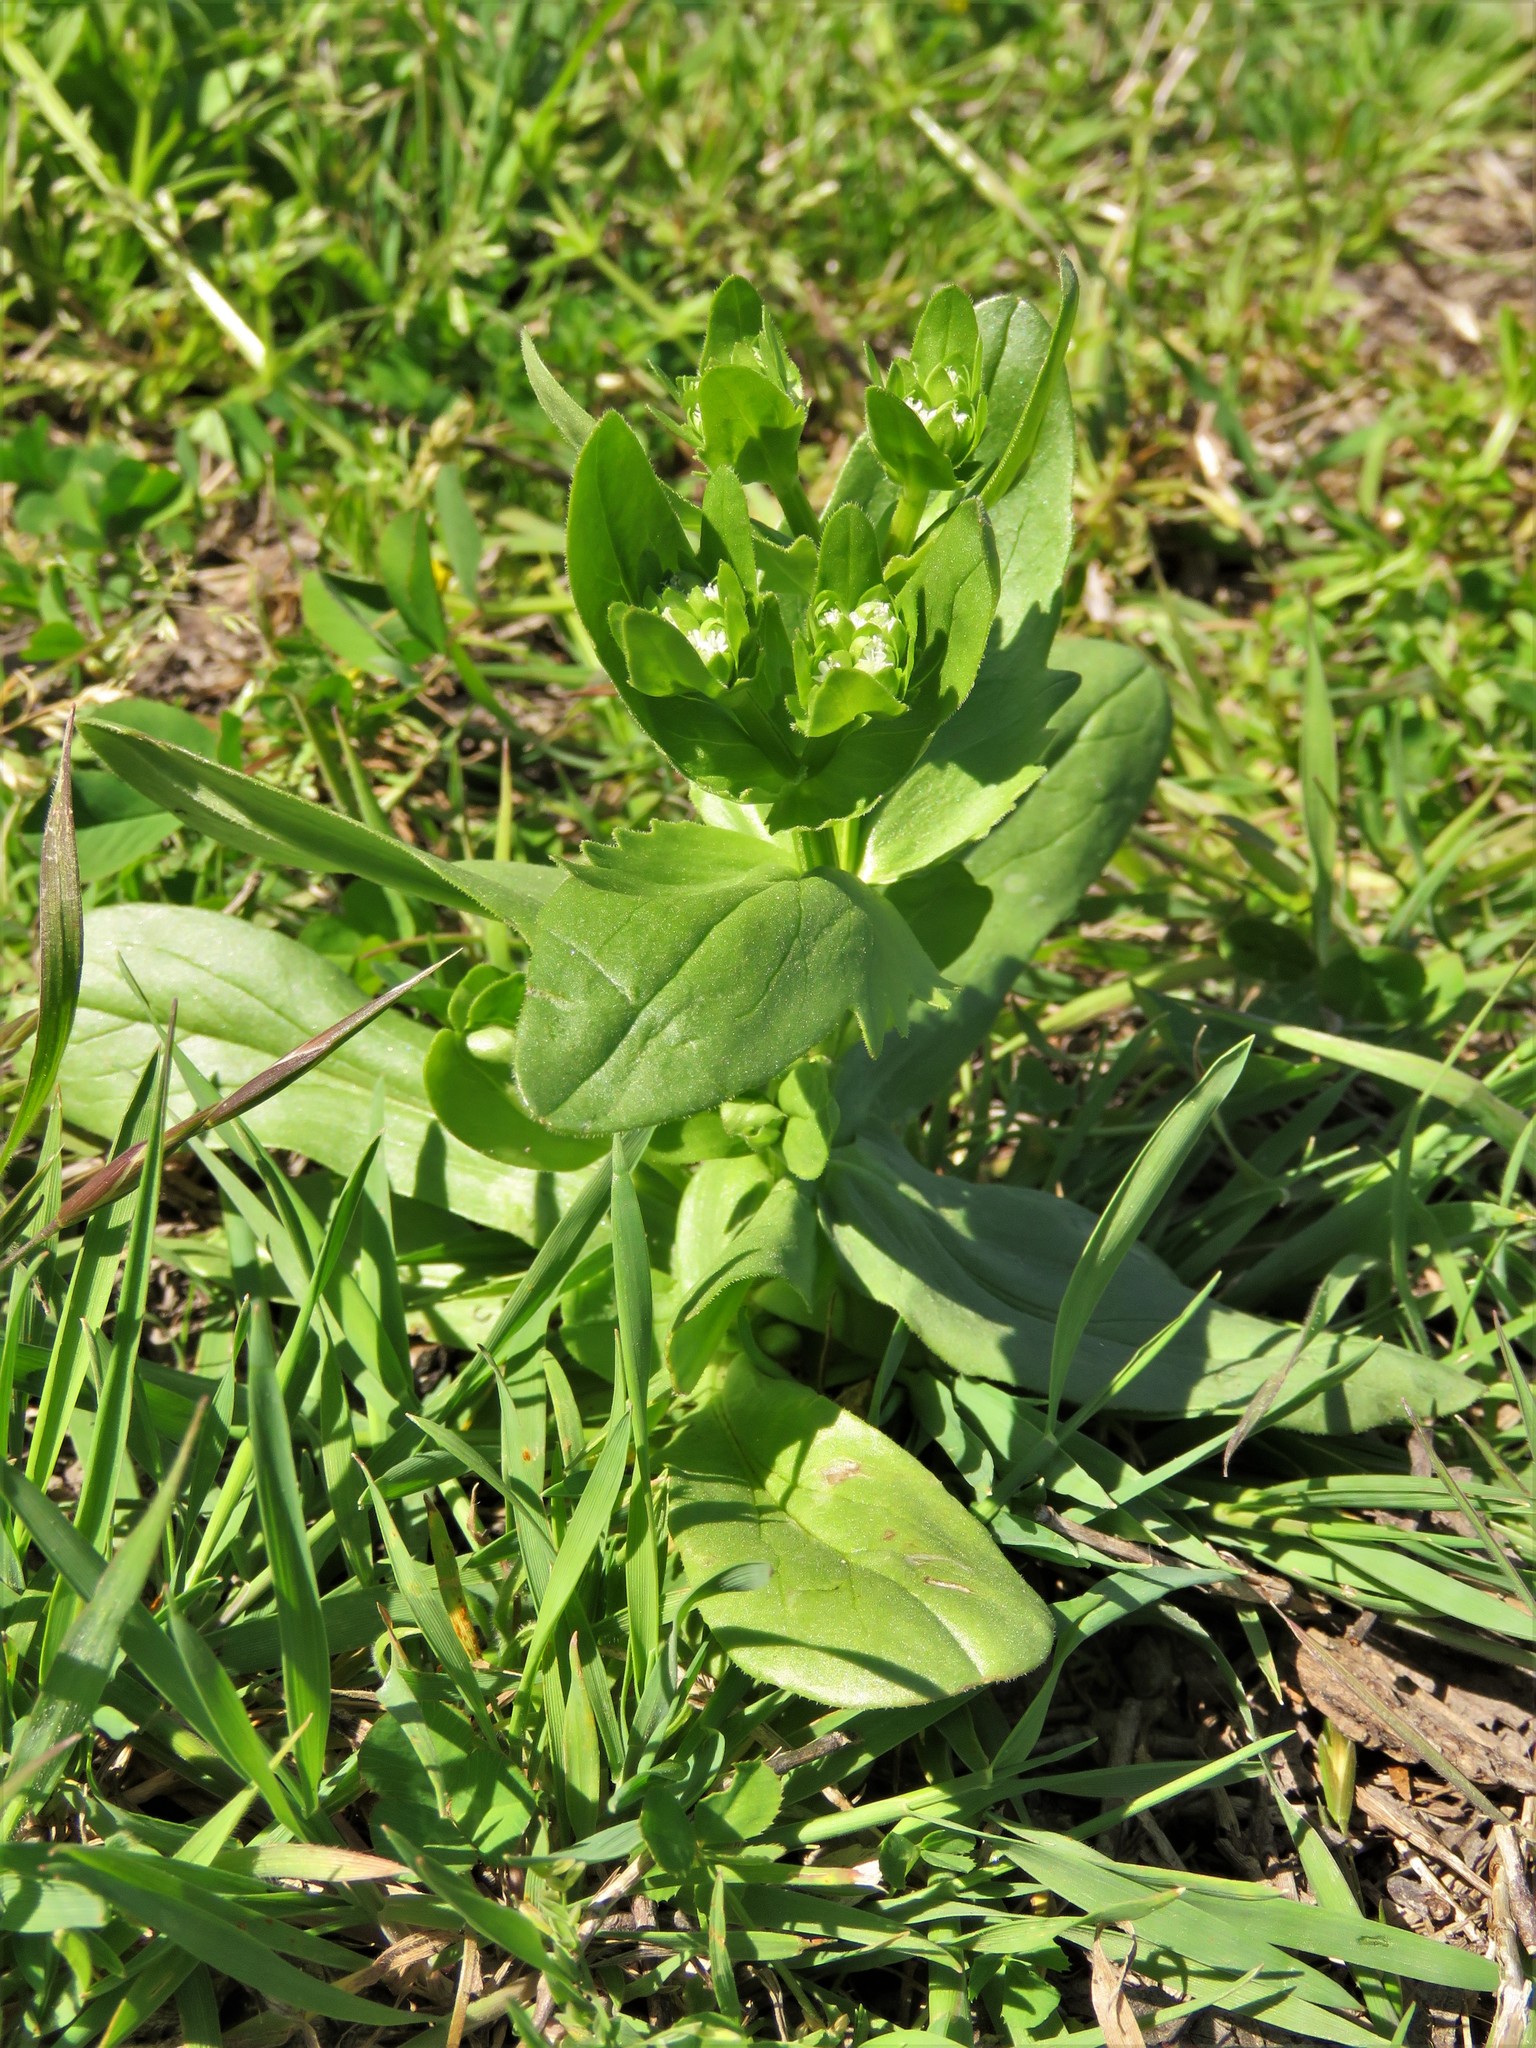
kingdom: Plantae
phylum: Tracheophyta
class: Magnoliopsida
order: Dipsacales
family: Caprifoliaceae
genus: Valerianella
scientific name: Valerianella radiata
